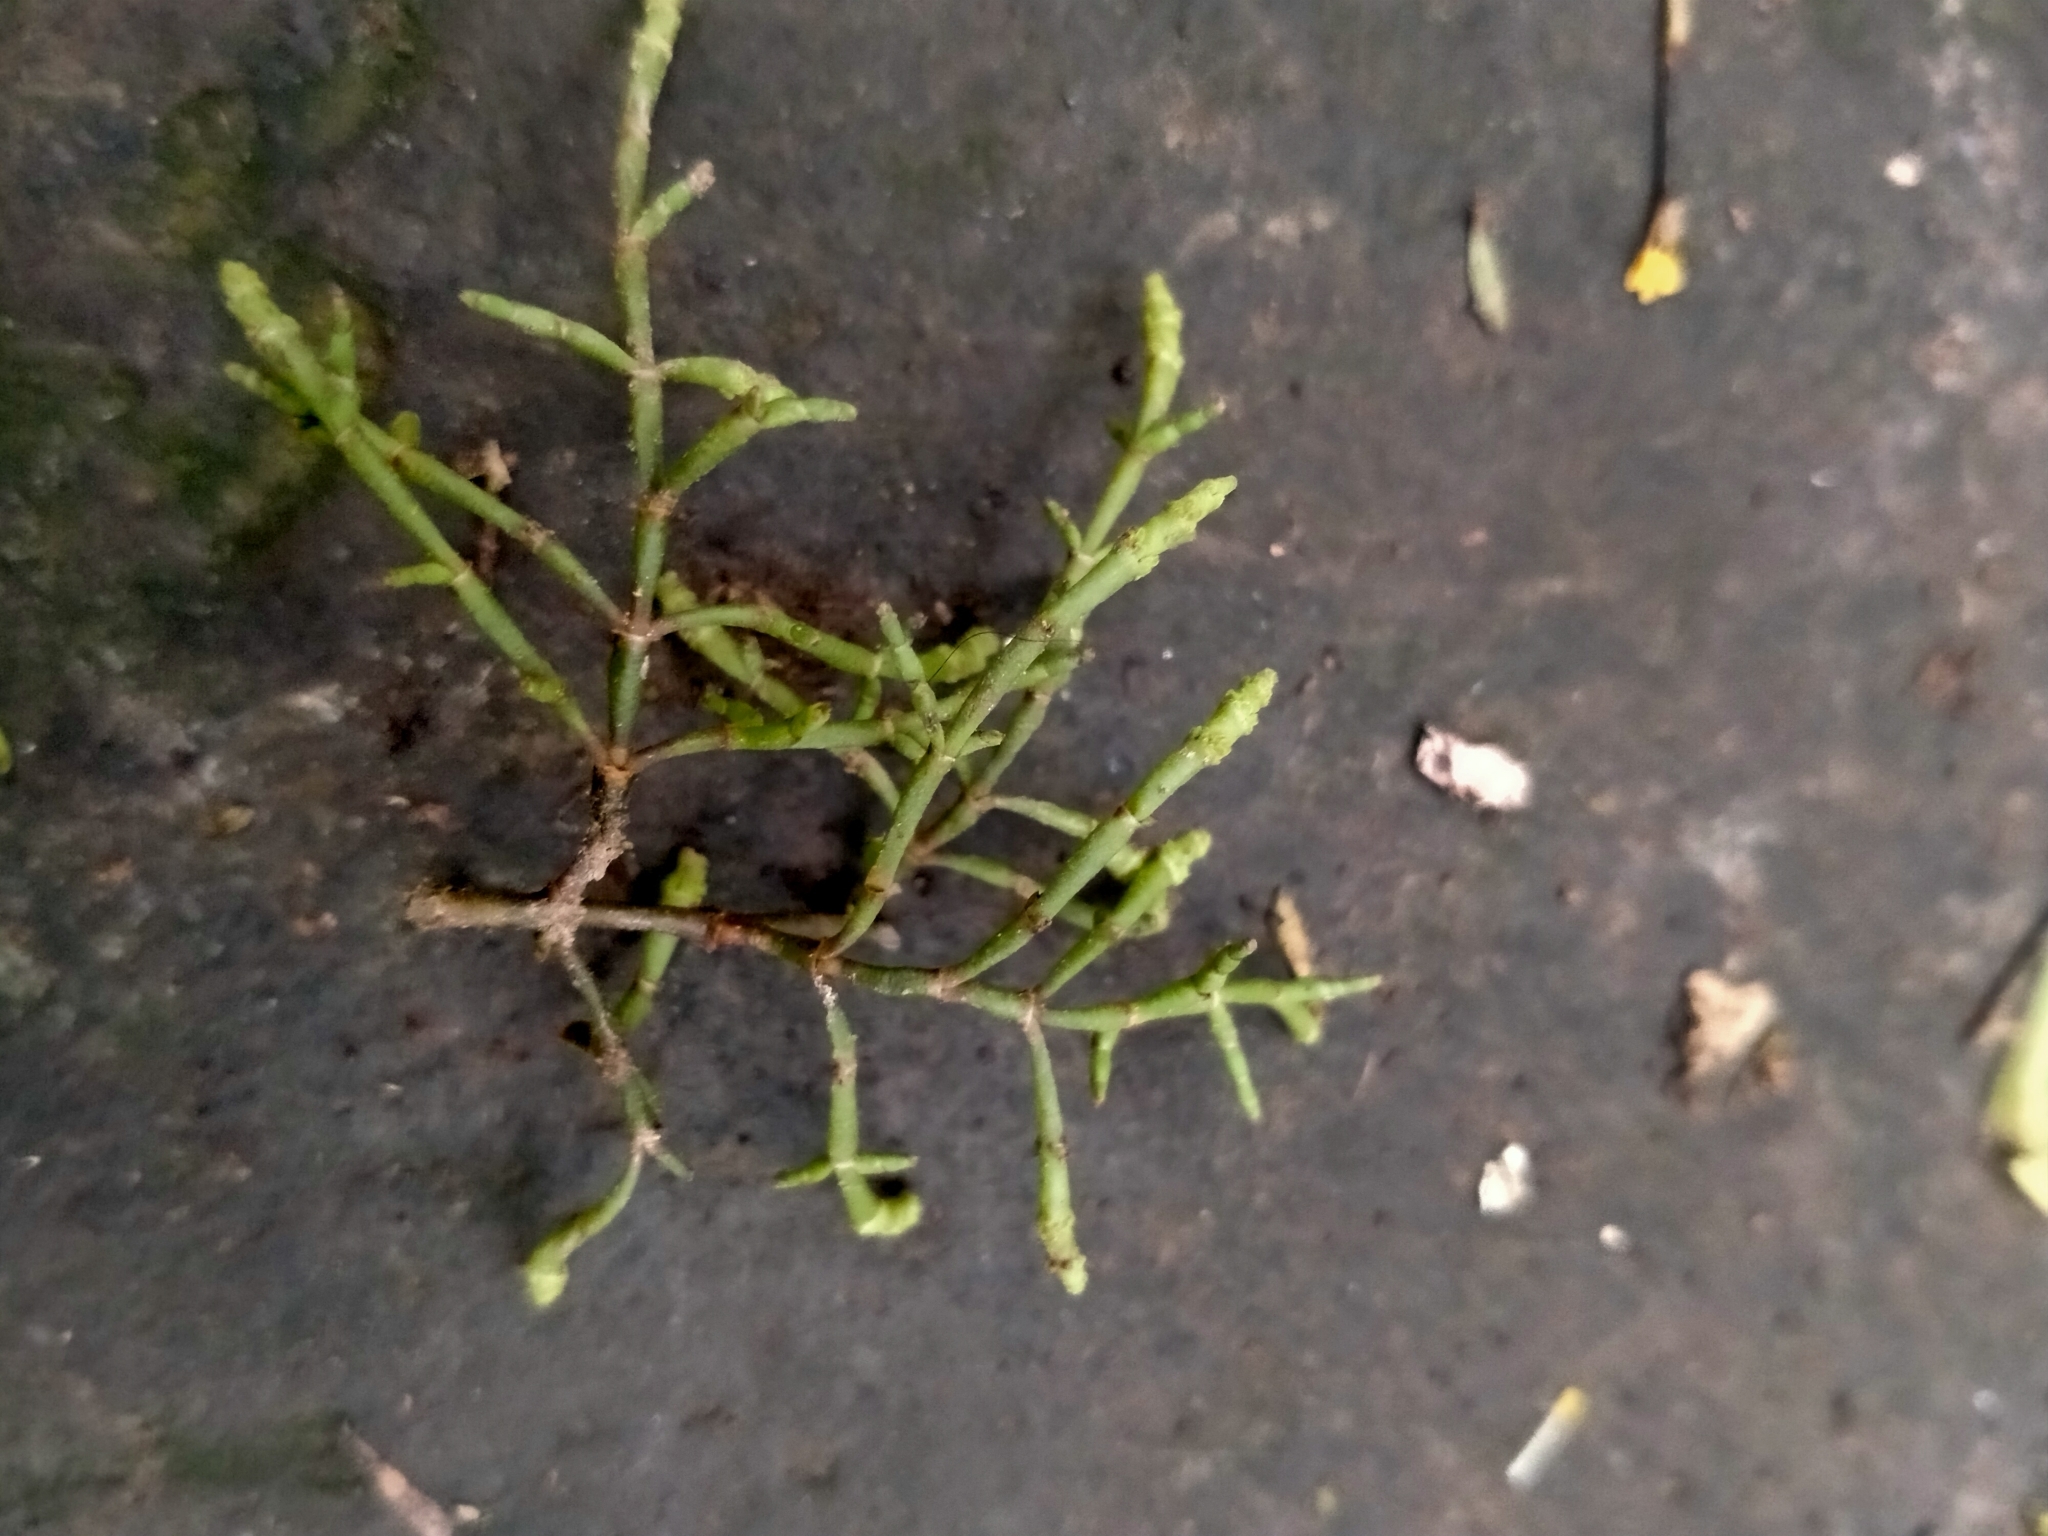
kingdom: Plantae
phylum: Tracheophyta
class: Magnoliopsida
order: Santalales
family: Viscaceae
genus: Korthalsella
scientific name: Korthalsella salicornioides
